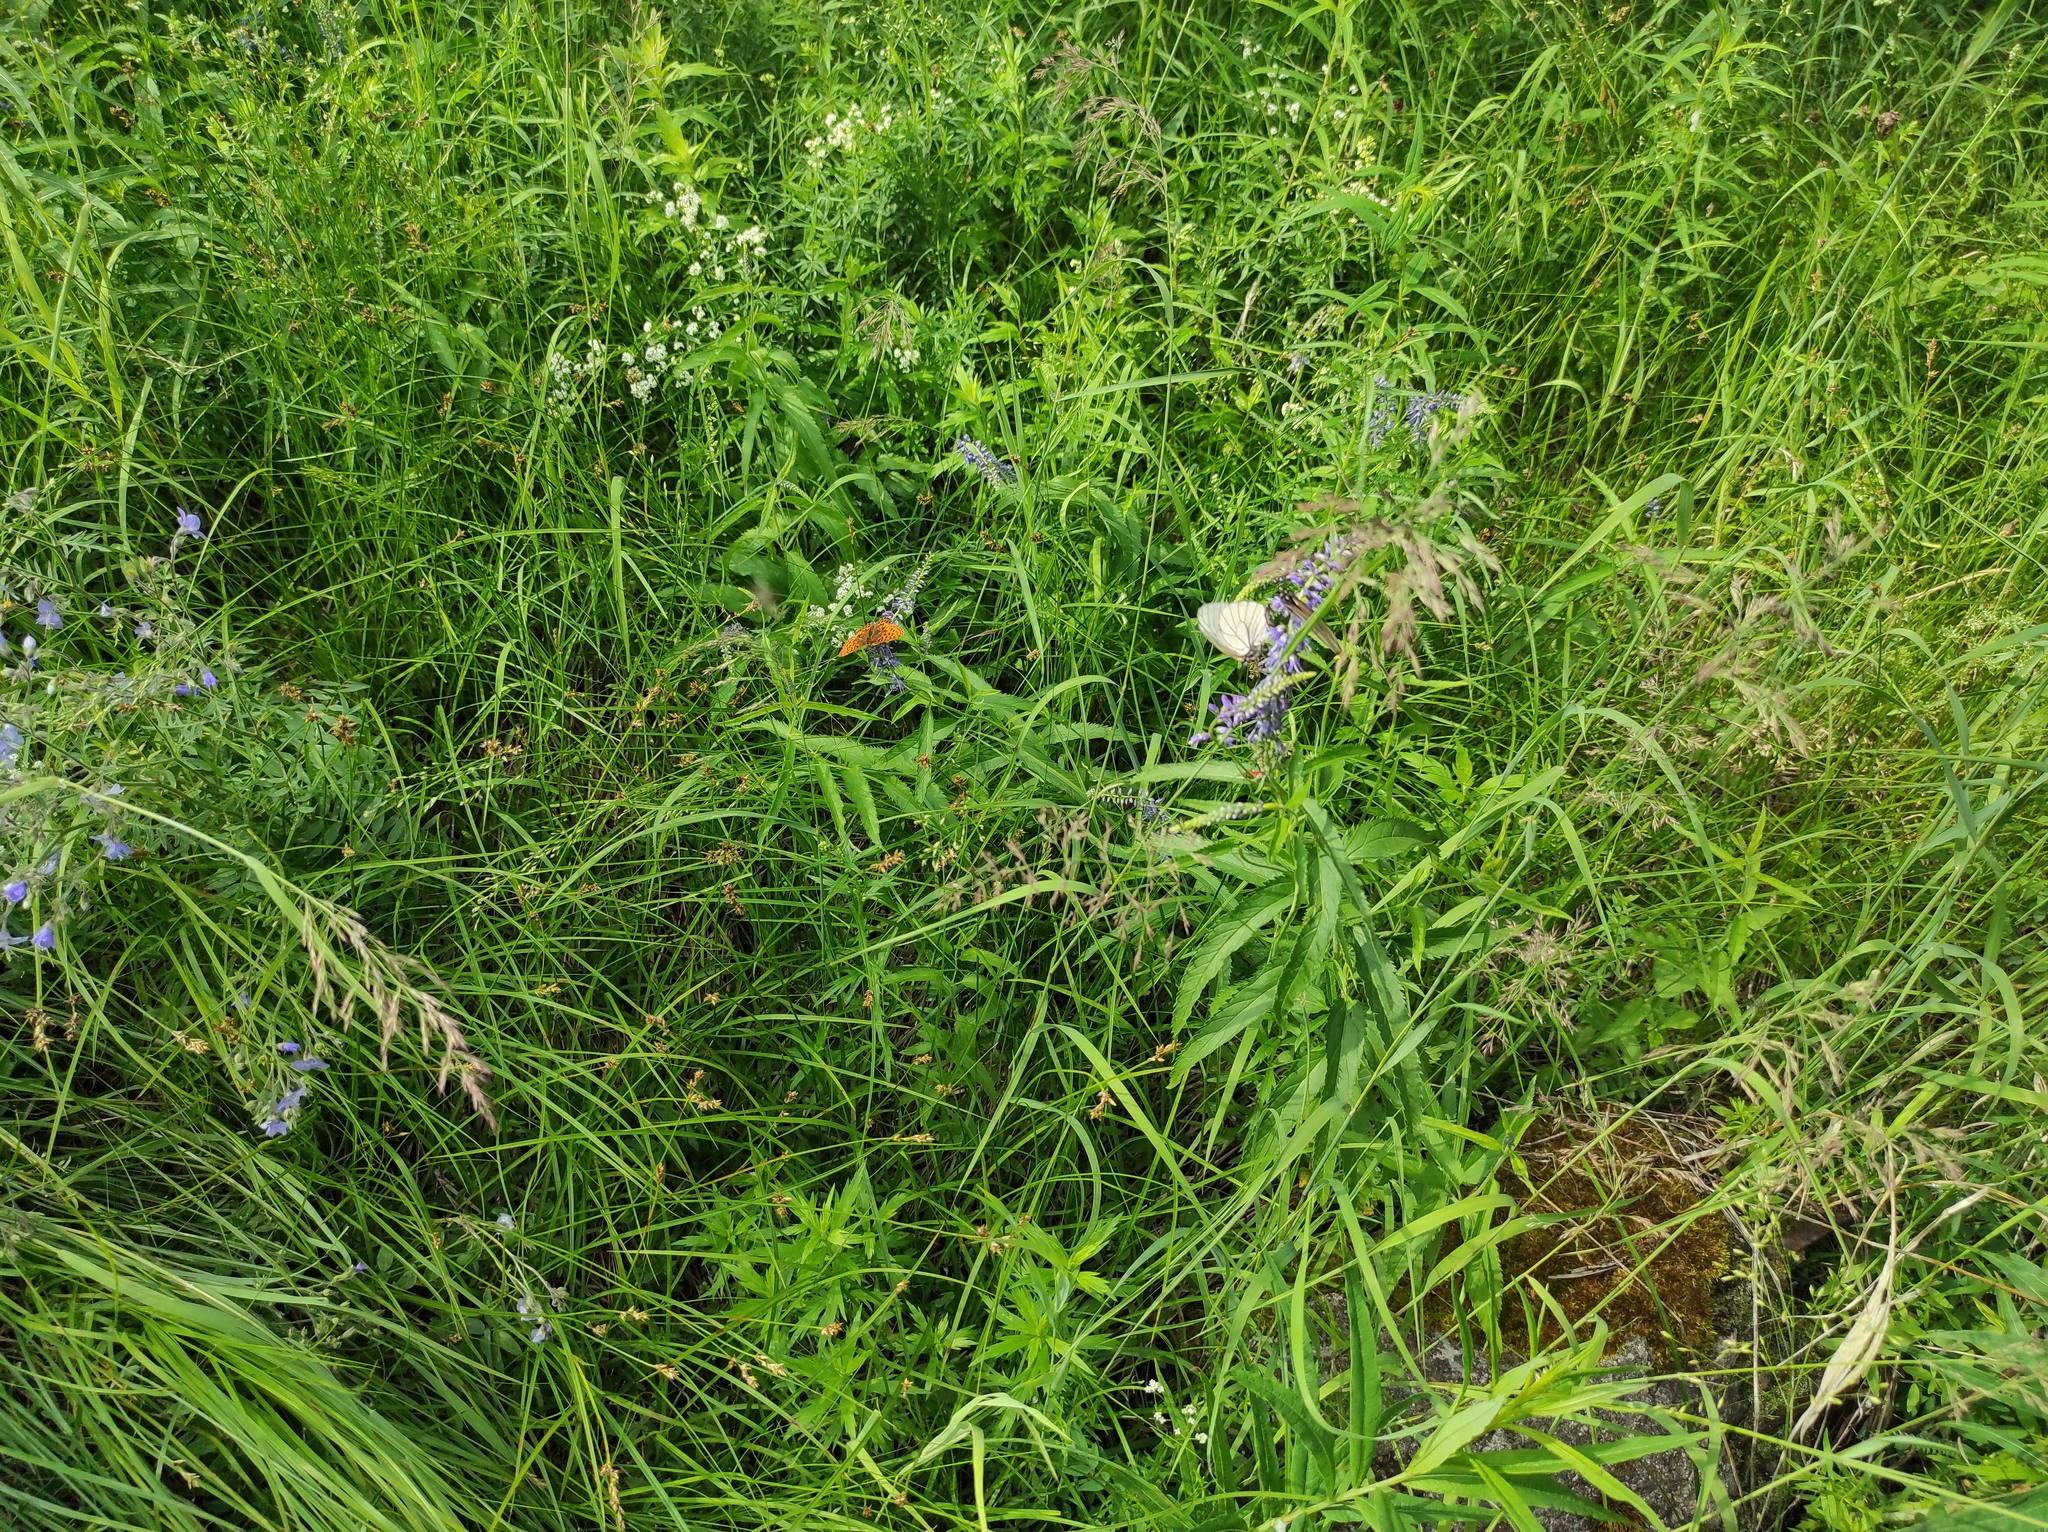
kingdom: Plantae
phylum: Tracheophyta
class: Magnoliopsida
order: Lamiales
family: Plantaginaceae
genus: Veronica
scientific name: Veronica longifolia
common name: Garden speedwell
